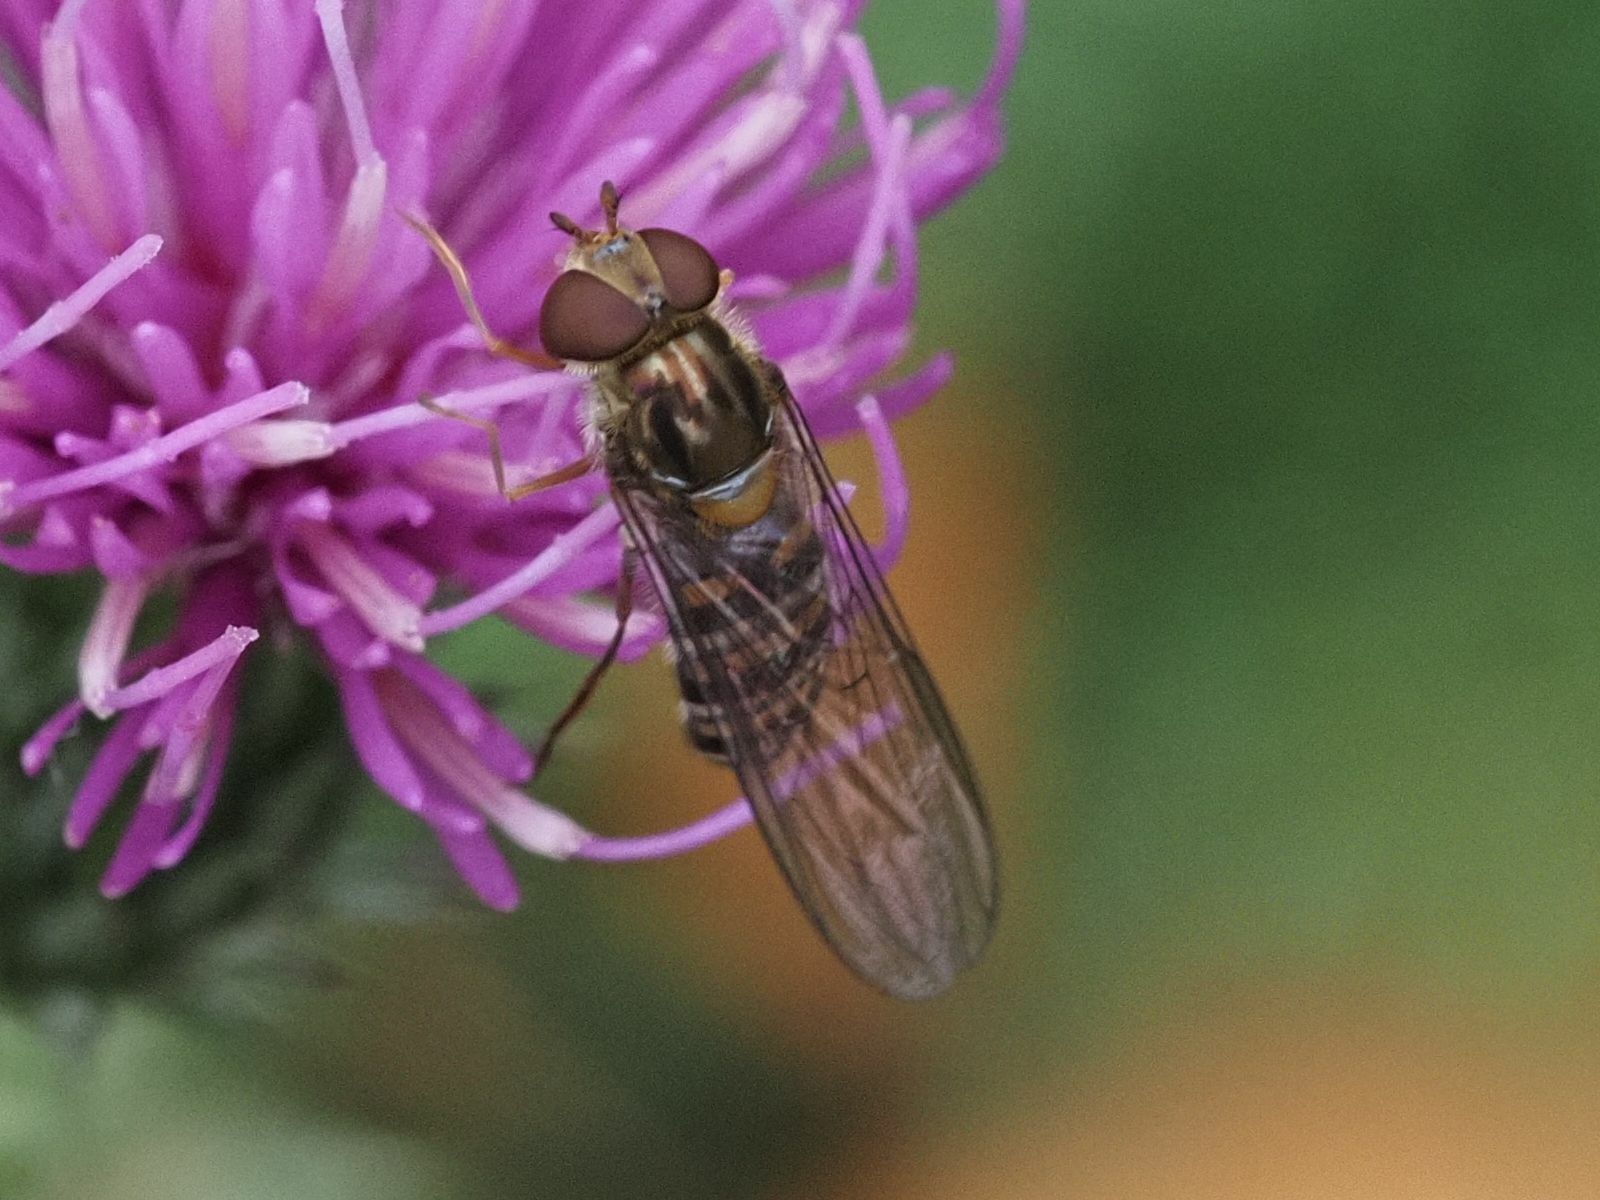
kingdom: Animalia
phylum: Arthropoda
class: Insecta
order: Diptera
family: Syrphidae
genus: Episyrphus
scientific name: Episyrphus balteatus
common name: Marmalade hoverfly
